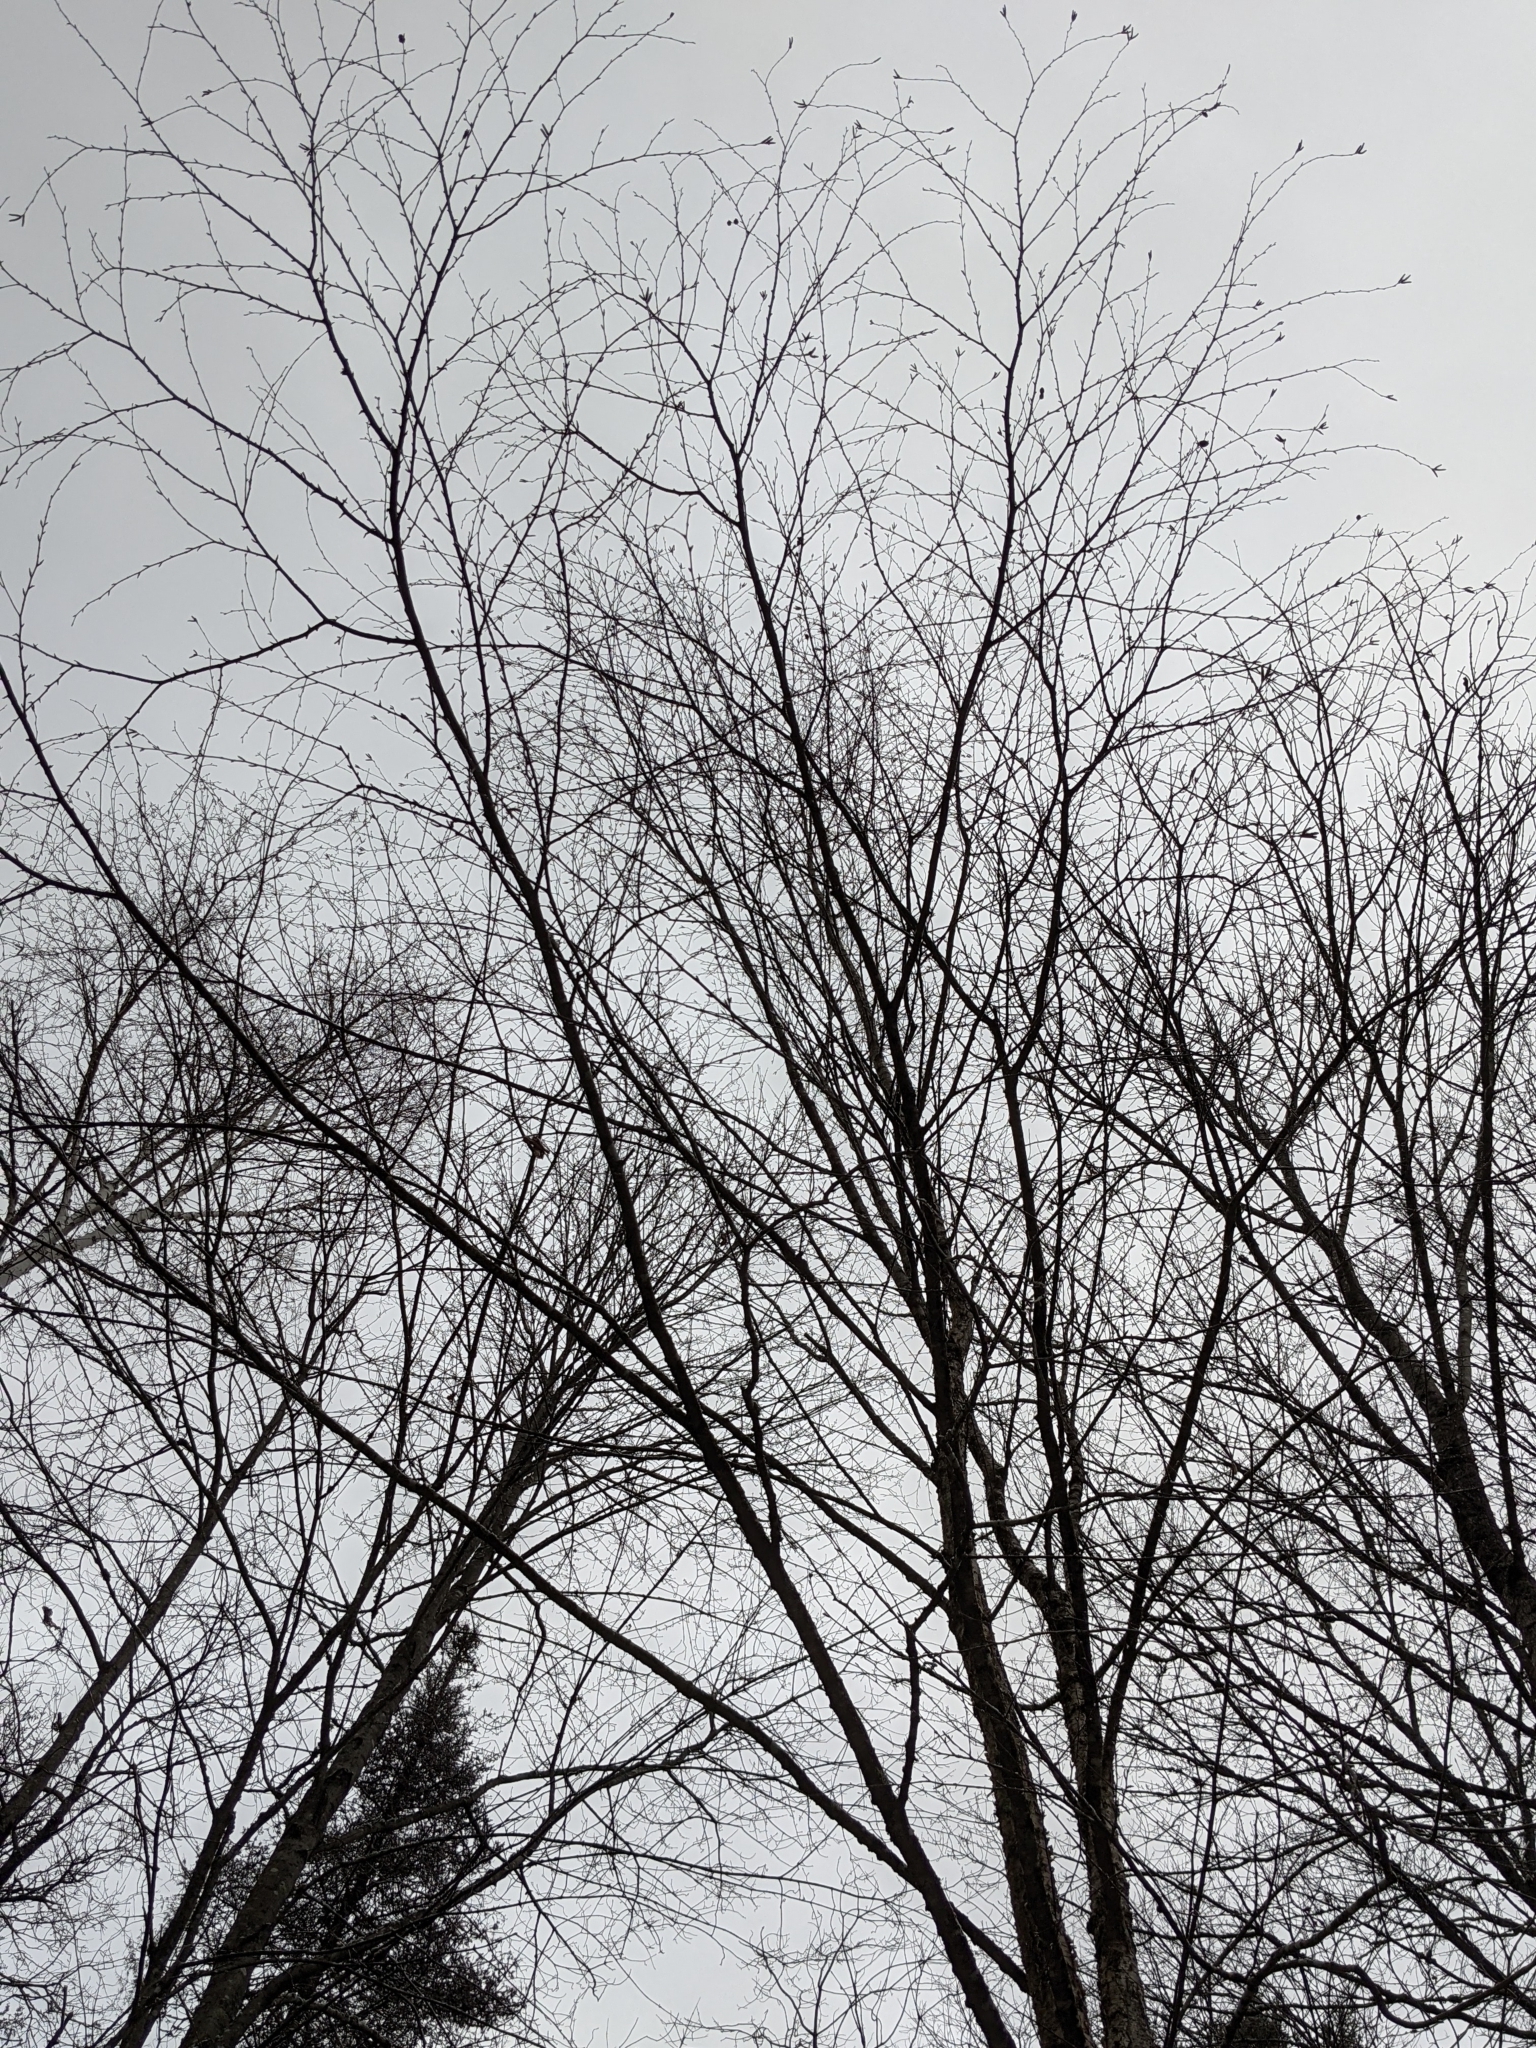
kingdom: Plantae
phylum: Tracheophyta
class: Magnoliopsida
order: Fagales
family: Betulaceae
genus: Betula
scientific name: Betula alleghaniensis
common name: Yellow birch
